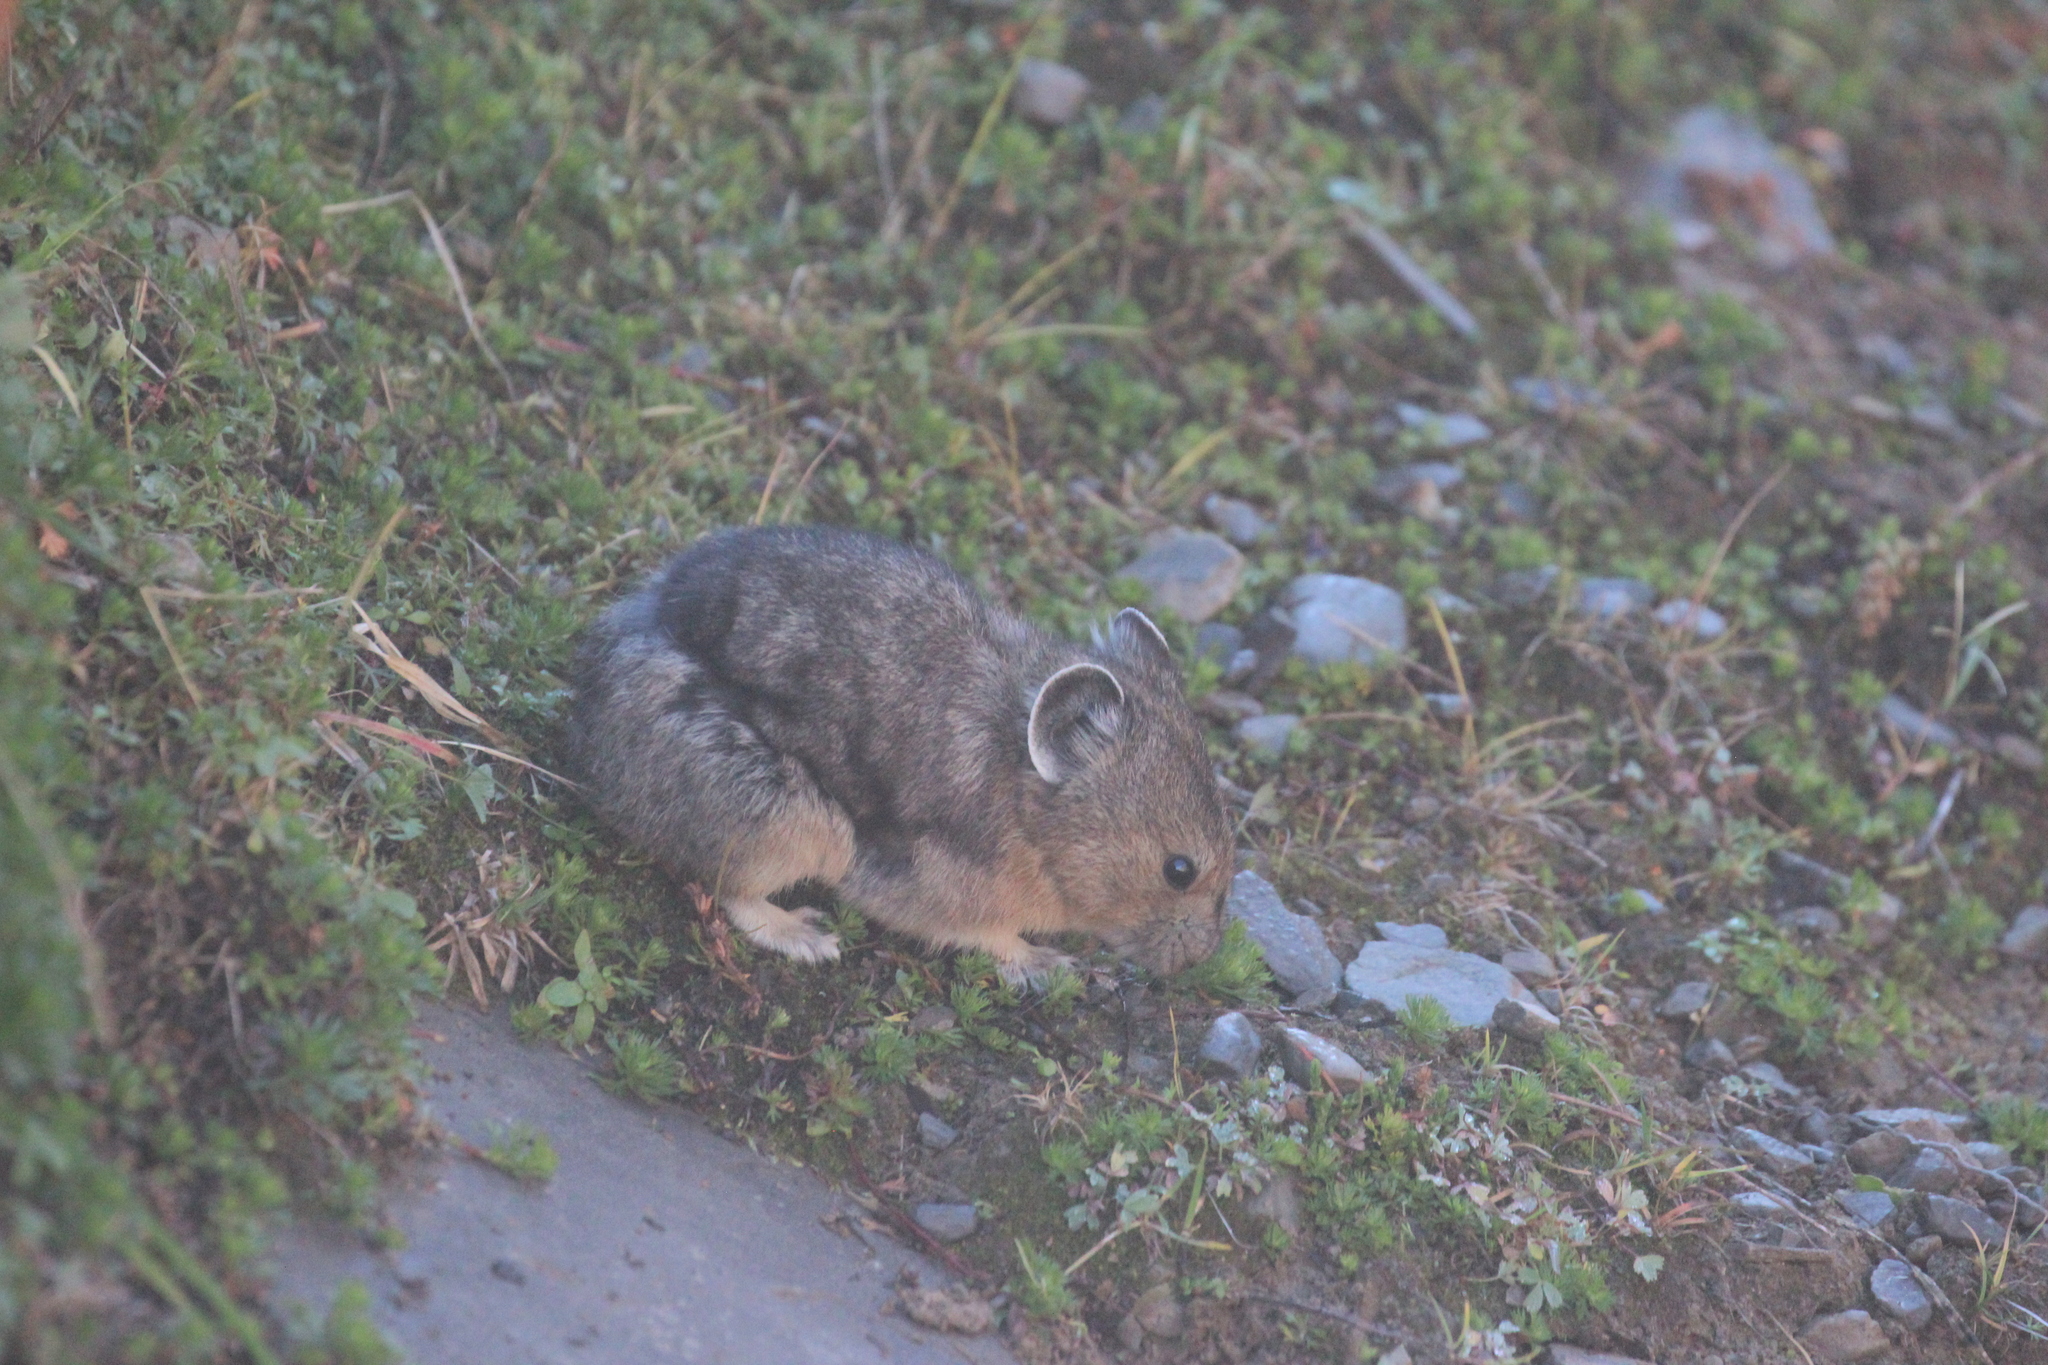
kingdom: Animalia
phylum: Chordata
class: Mammalia
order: Lagomorpha
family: Ochotonidae
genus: Ochotona
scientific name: Ochotona princeps
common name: American pika
